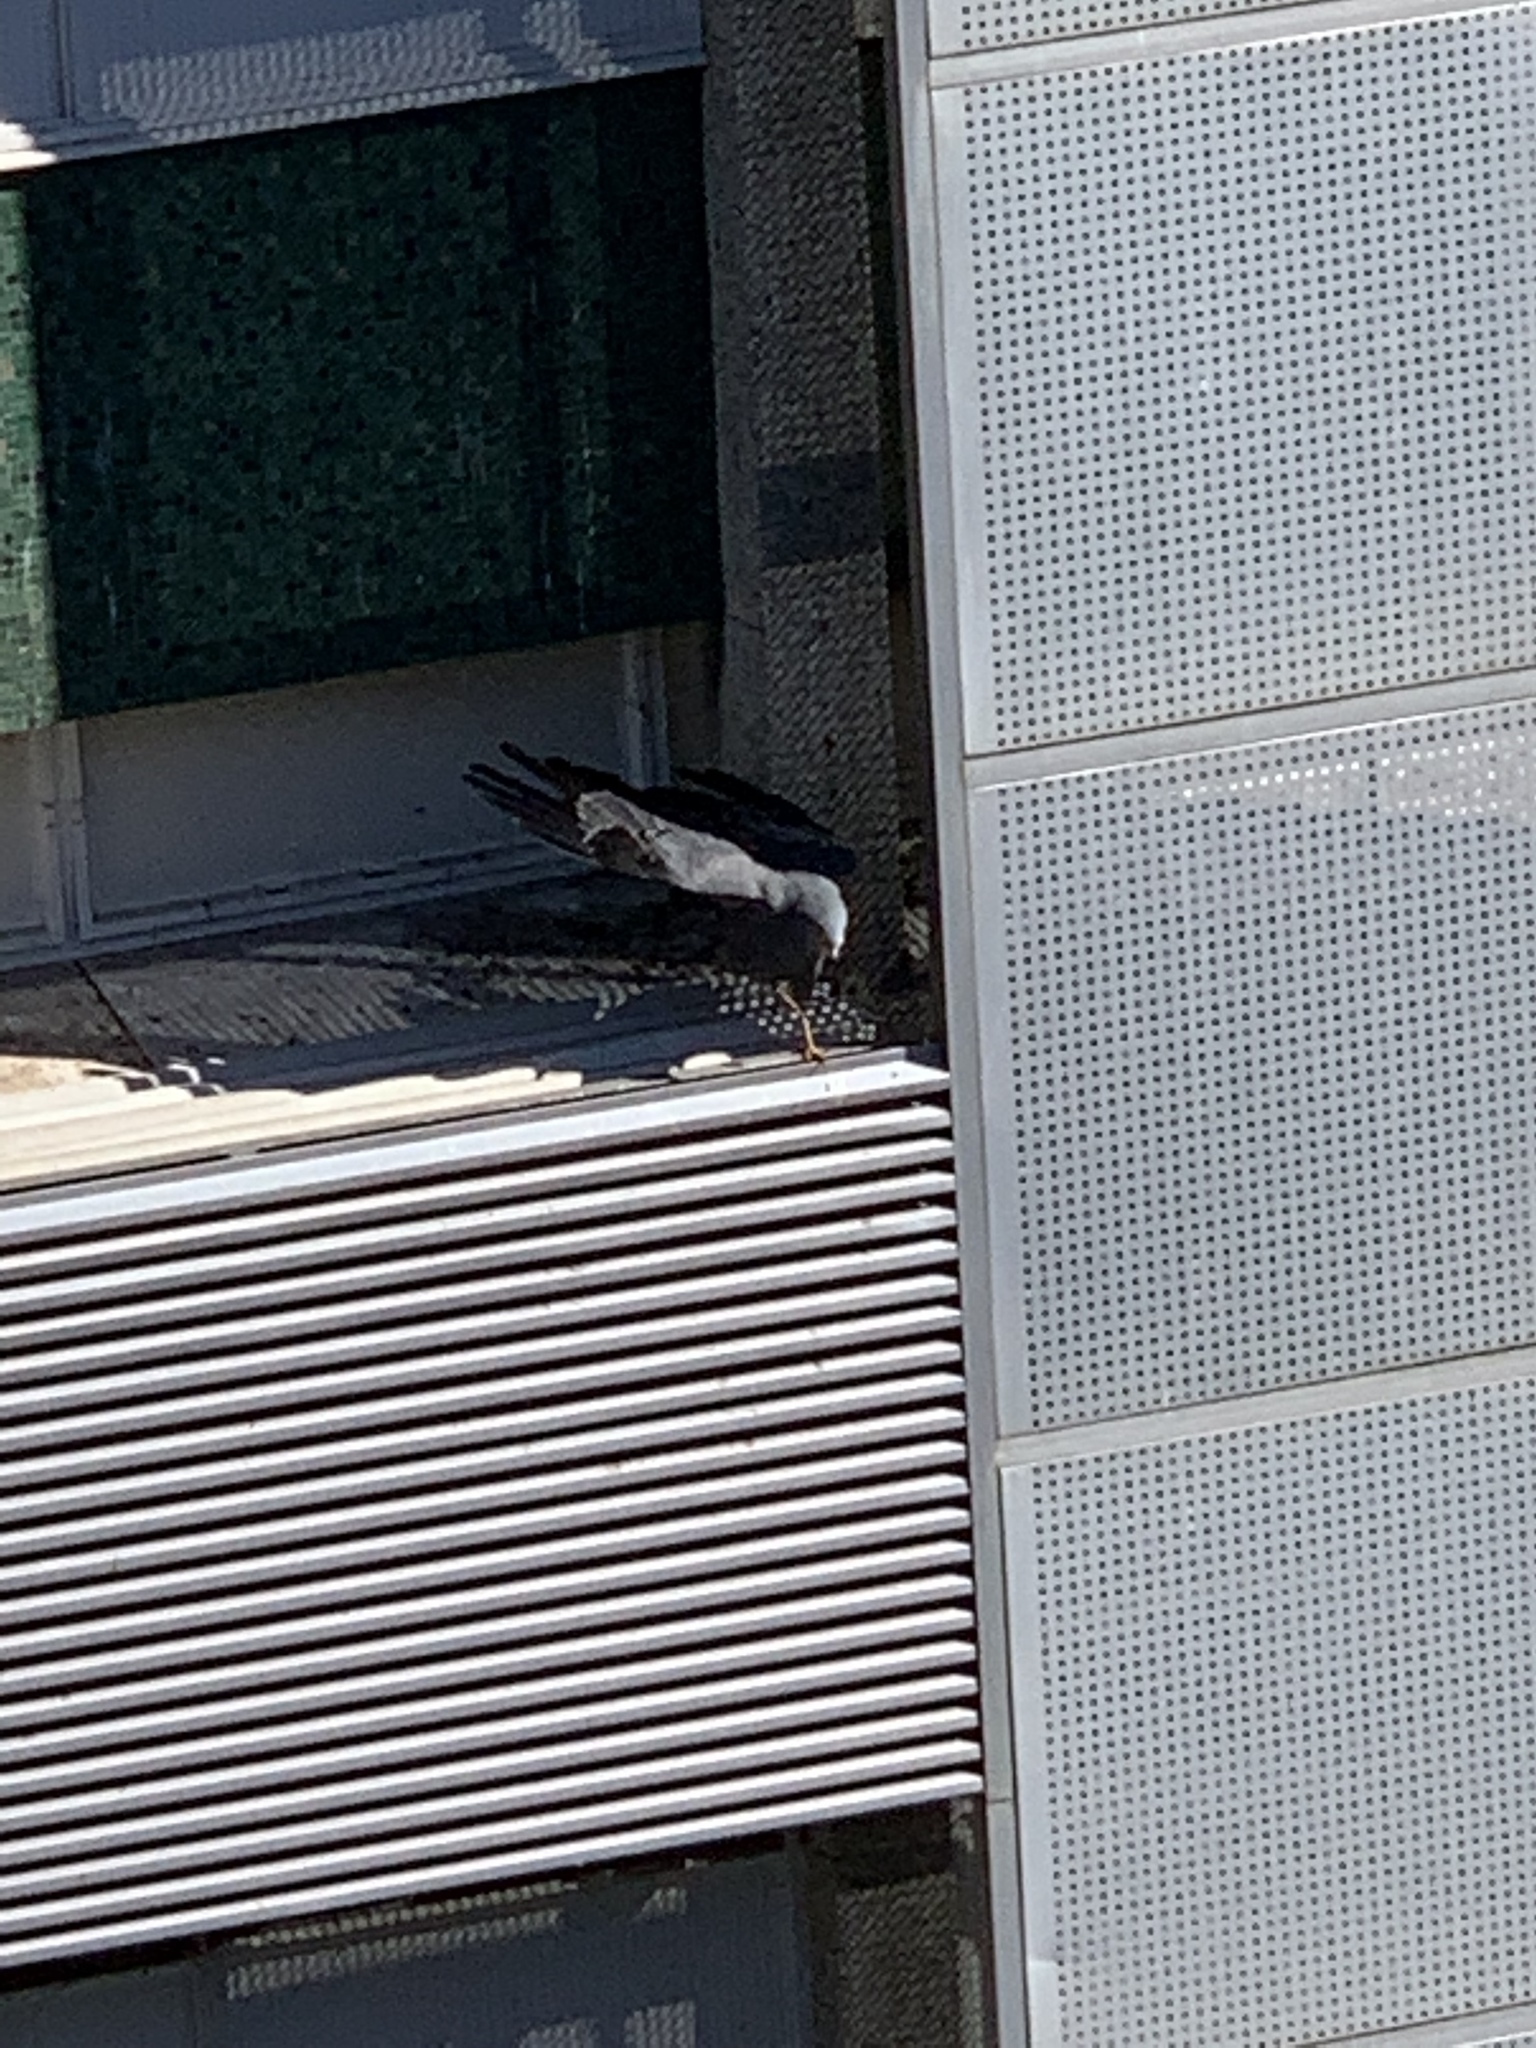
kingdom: Animalia
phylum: Chordata
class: Aves
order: Accipitriformes
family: Accipitridae
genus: Polyboroides
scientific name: Polyboroides typus
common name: African harrier-hawk
